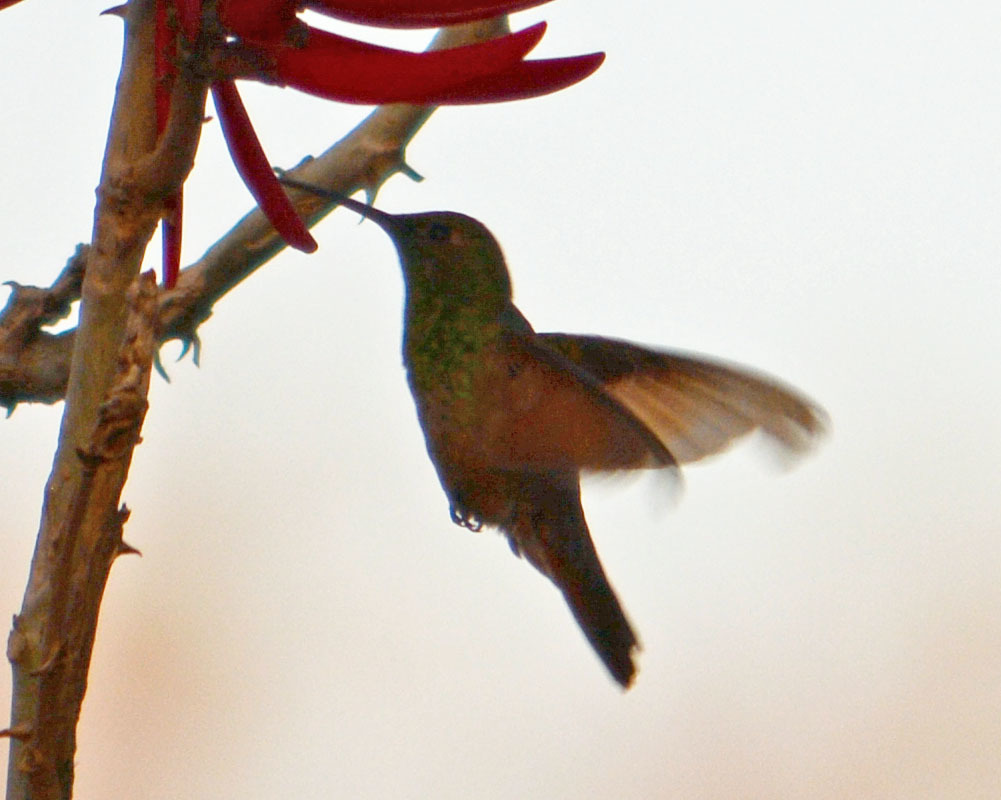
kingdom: Animalia
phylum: Chordata
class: Aves
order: Apodiformes
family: Trochilidae
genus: Saucerottia
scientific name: Saucerottia beryllina
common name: Berylline hummingbird
